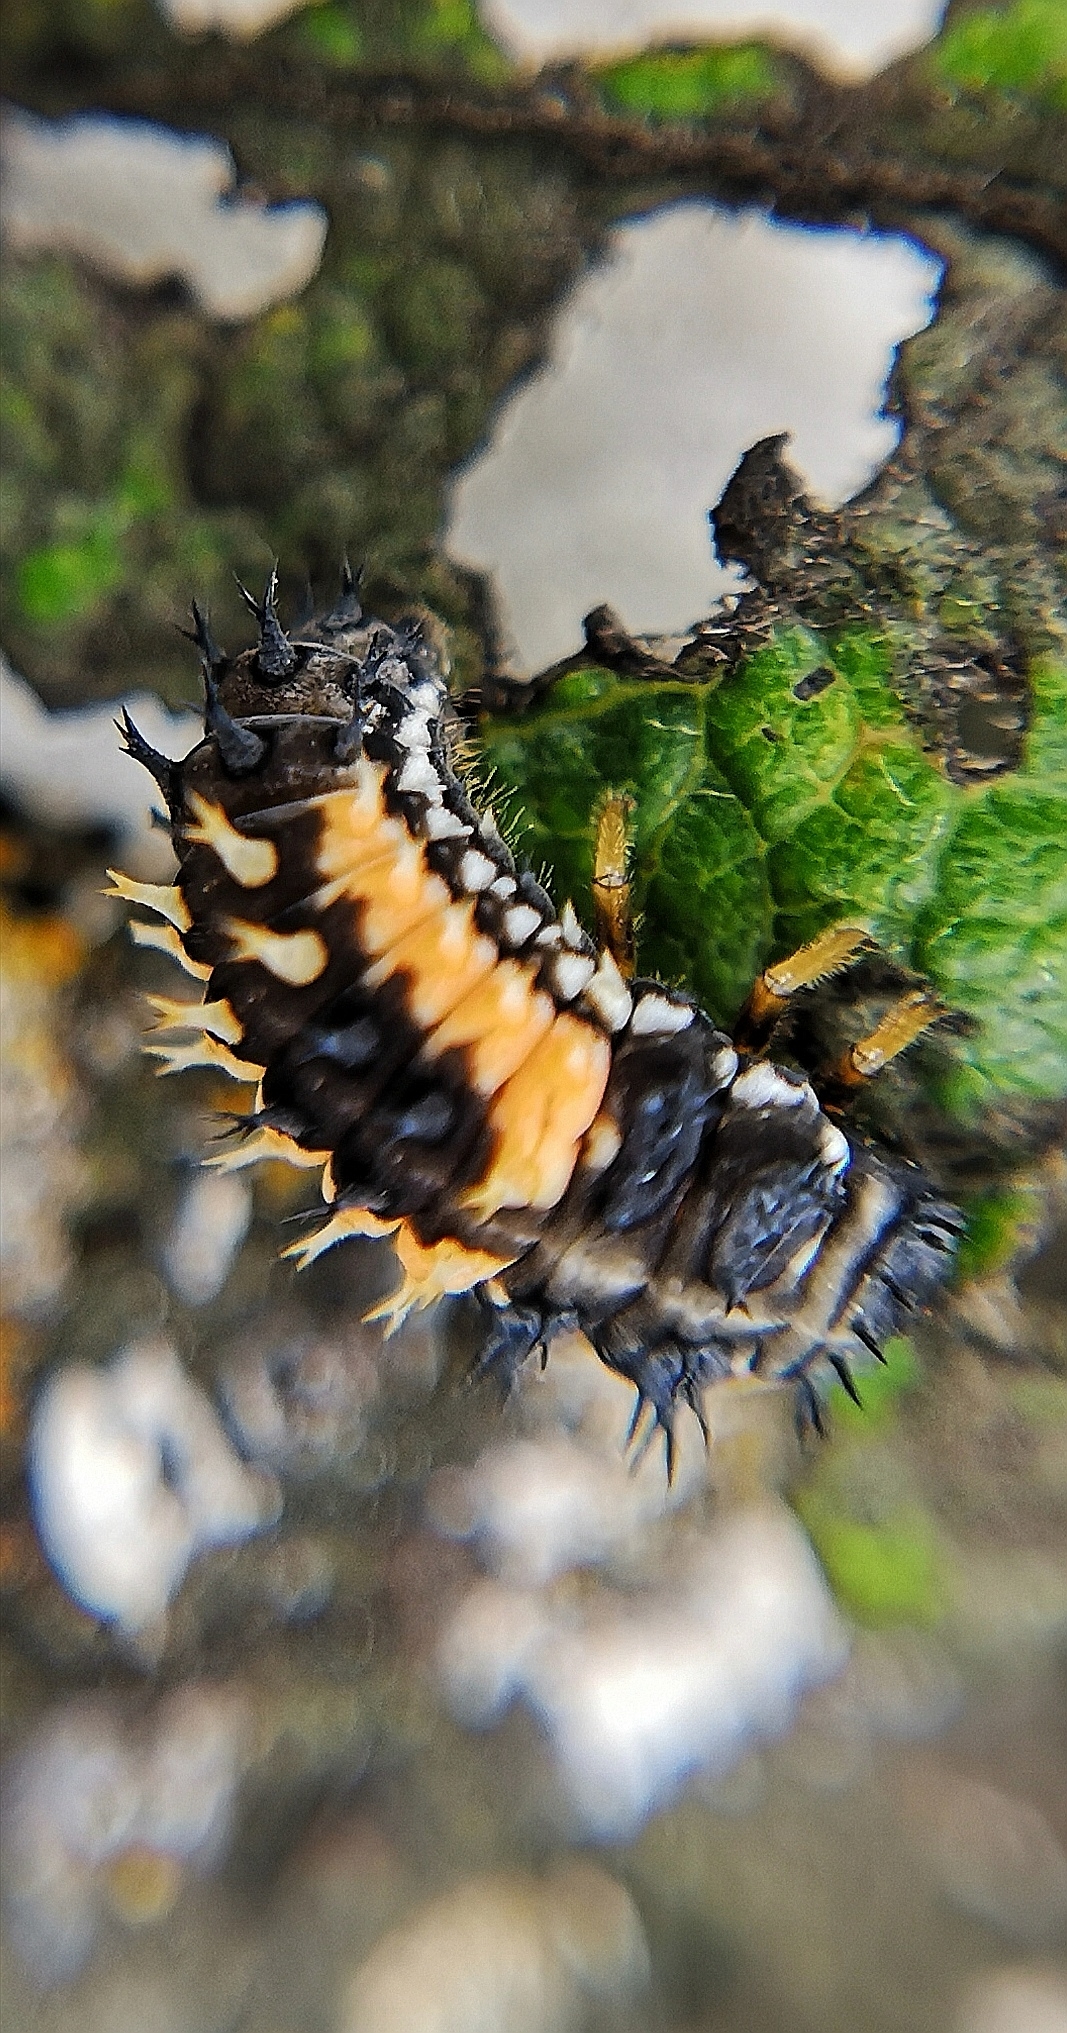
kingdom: Animalia
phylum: Arthropoda
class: Insecta
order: Coleoptera
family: Coccinellidae
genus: Harmonia
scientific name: Harmonia axyridis
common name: Harlequin ladybird
